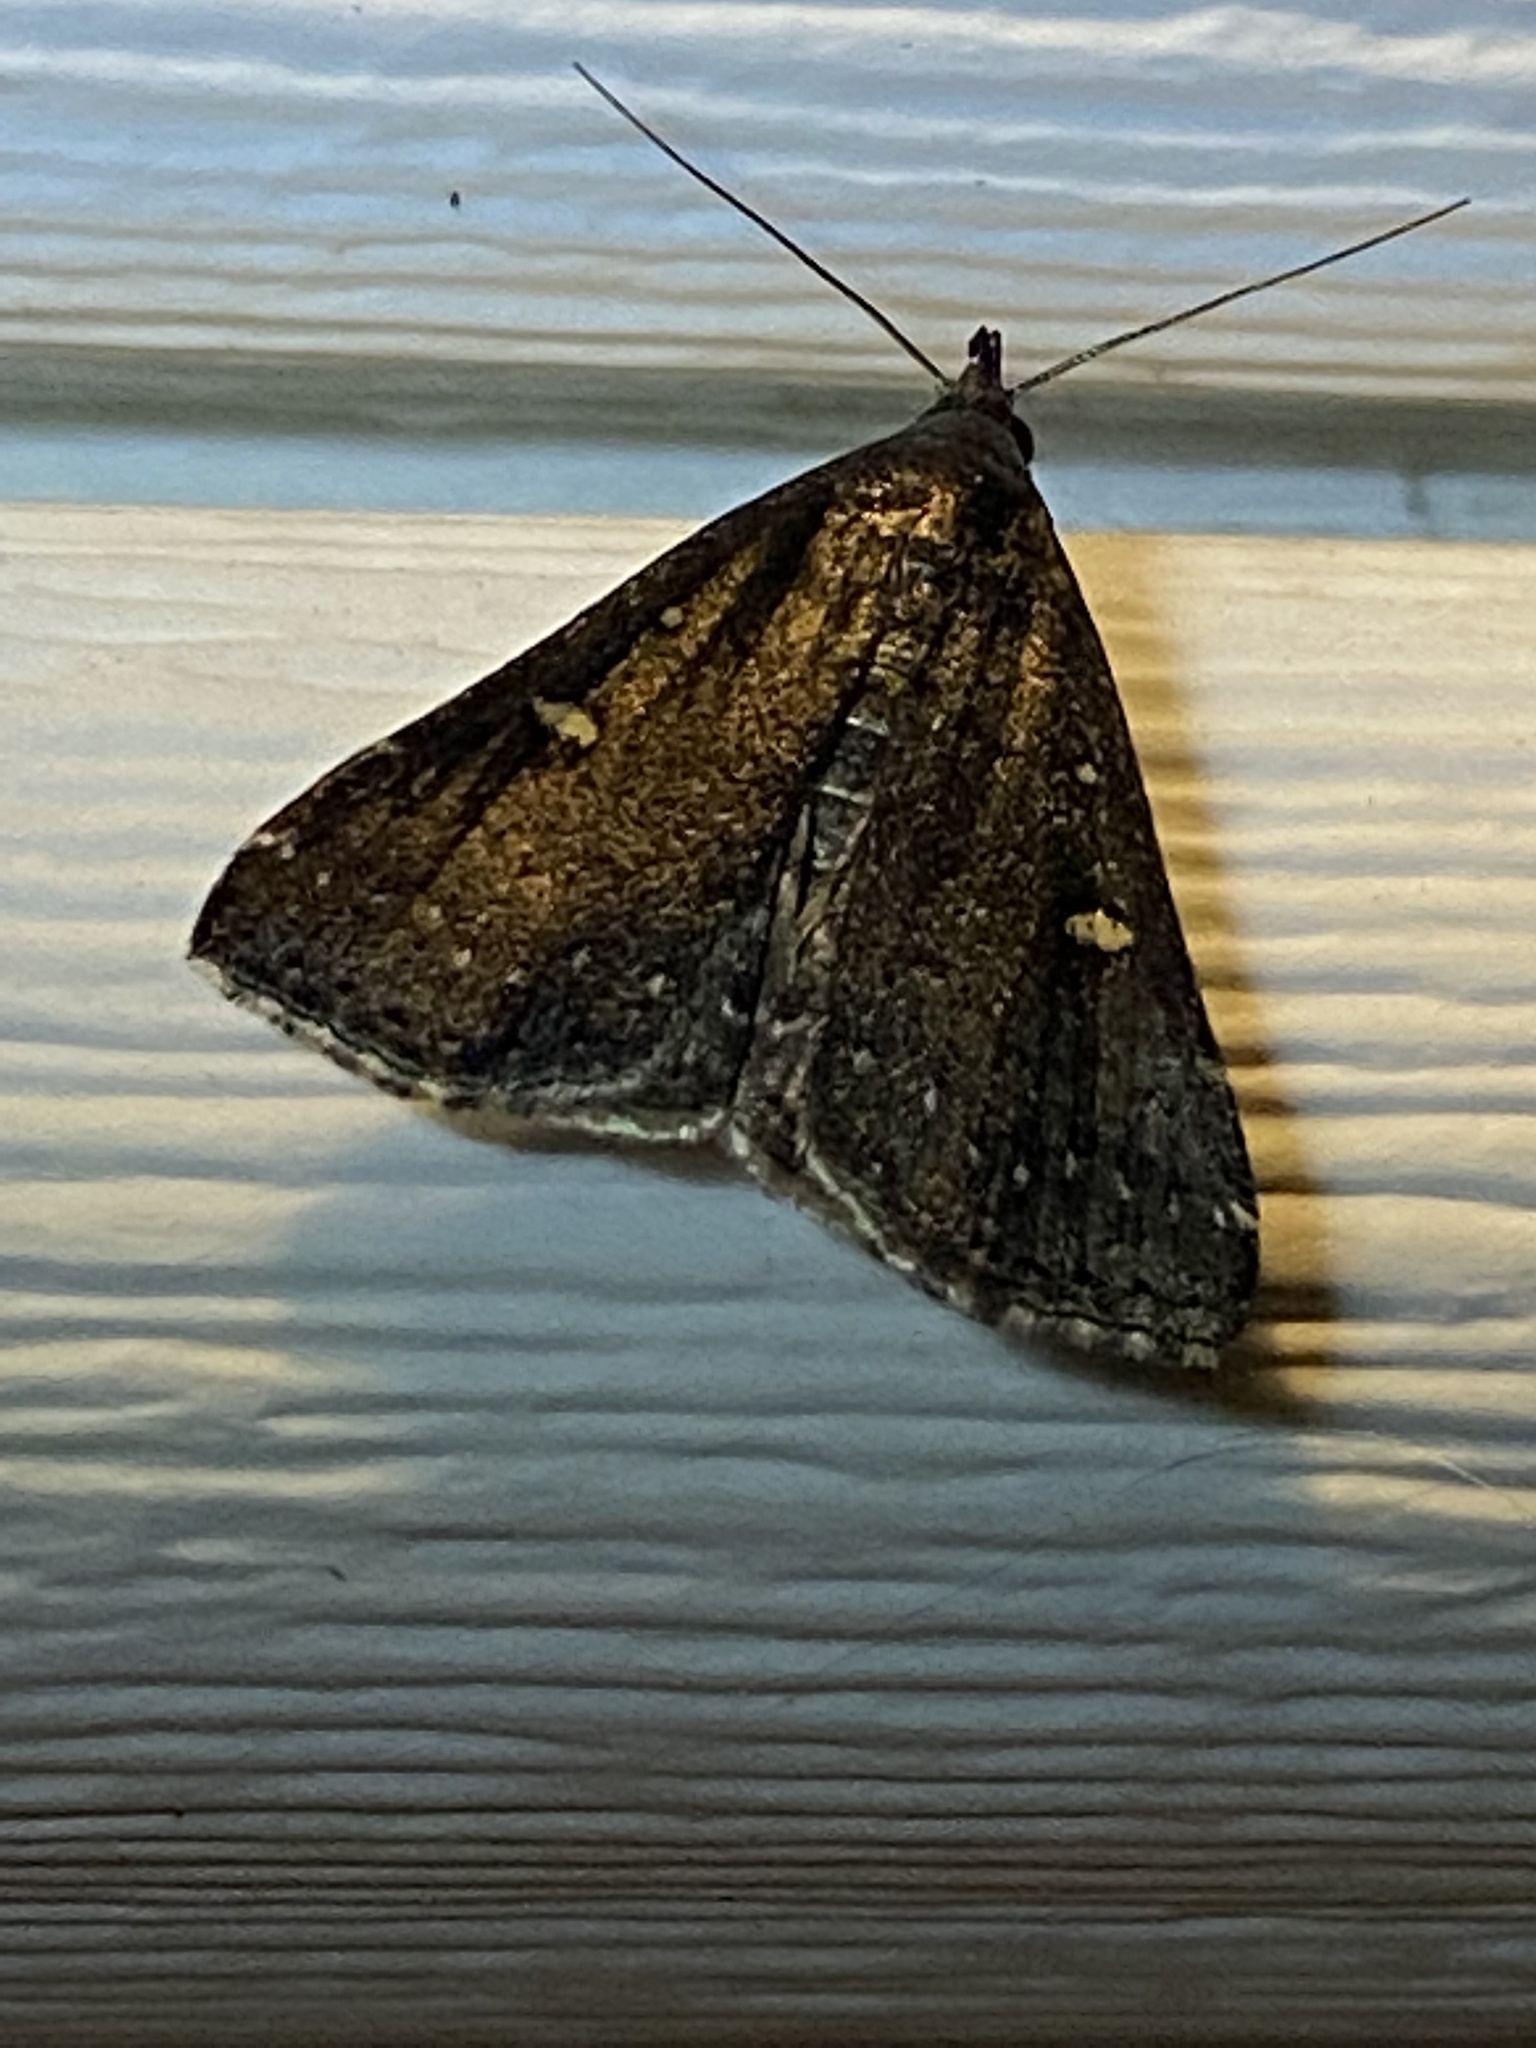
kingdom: Animalia
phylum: Arthropoda
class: Insecta
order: Lepidoptera
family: Erebidae
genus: Tetanolita
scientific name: Tetanolita mynesalis
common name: Smoky tetanolita moth
